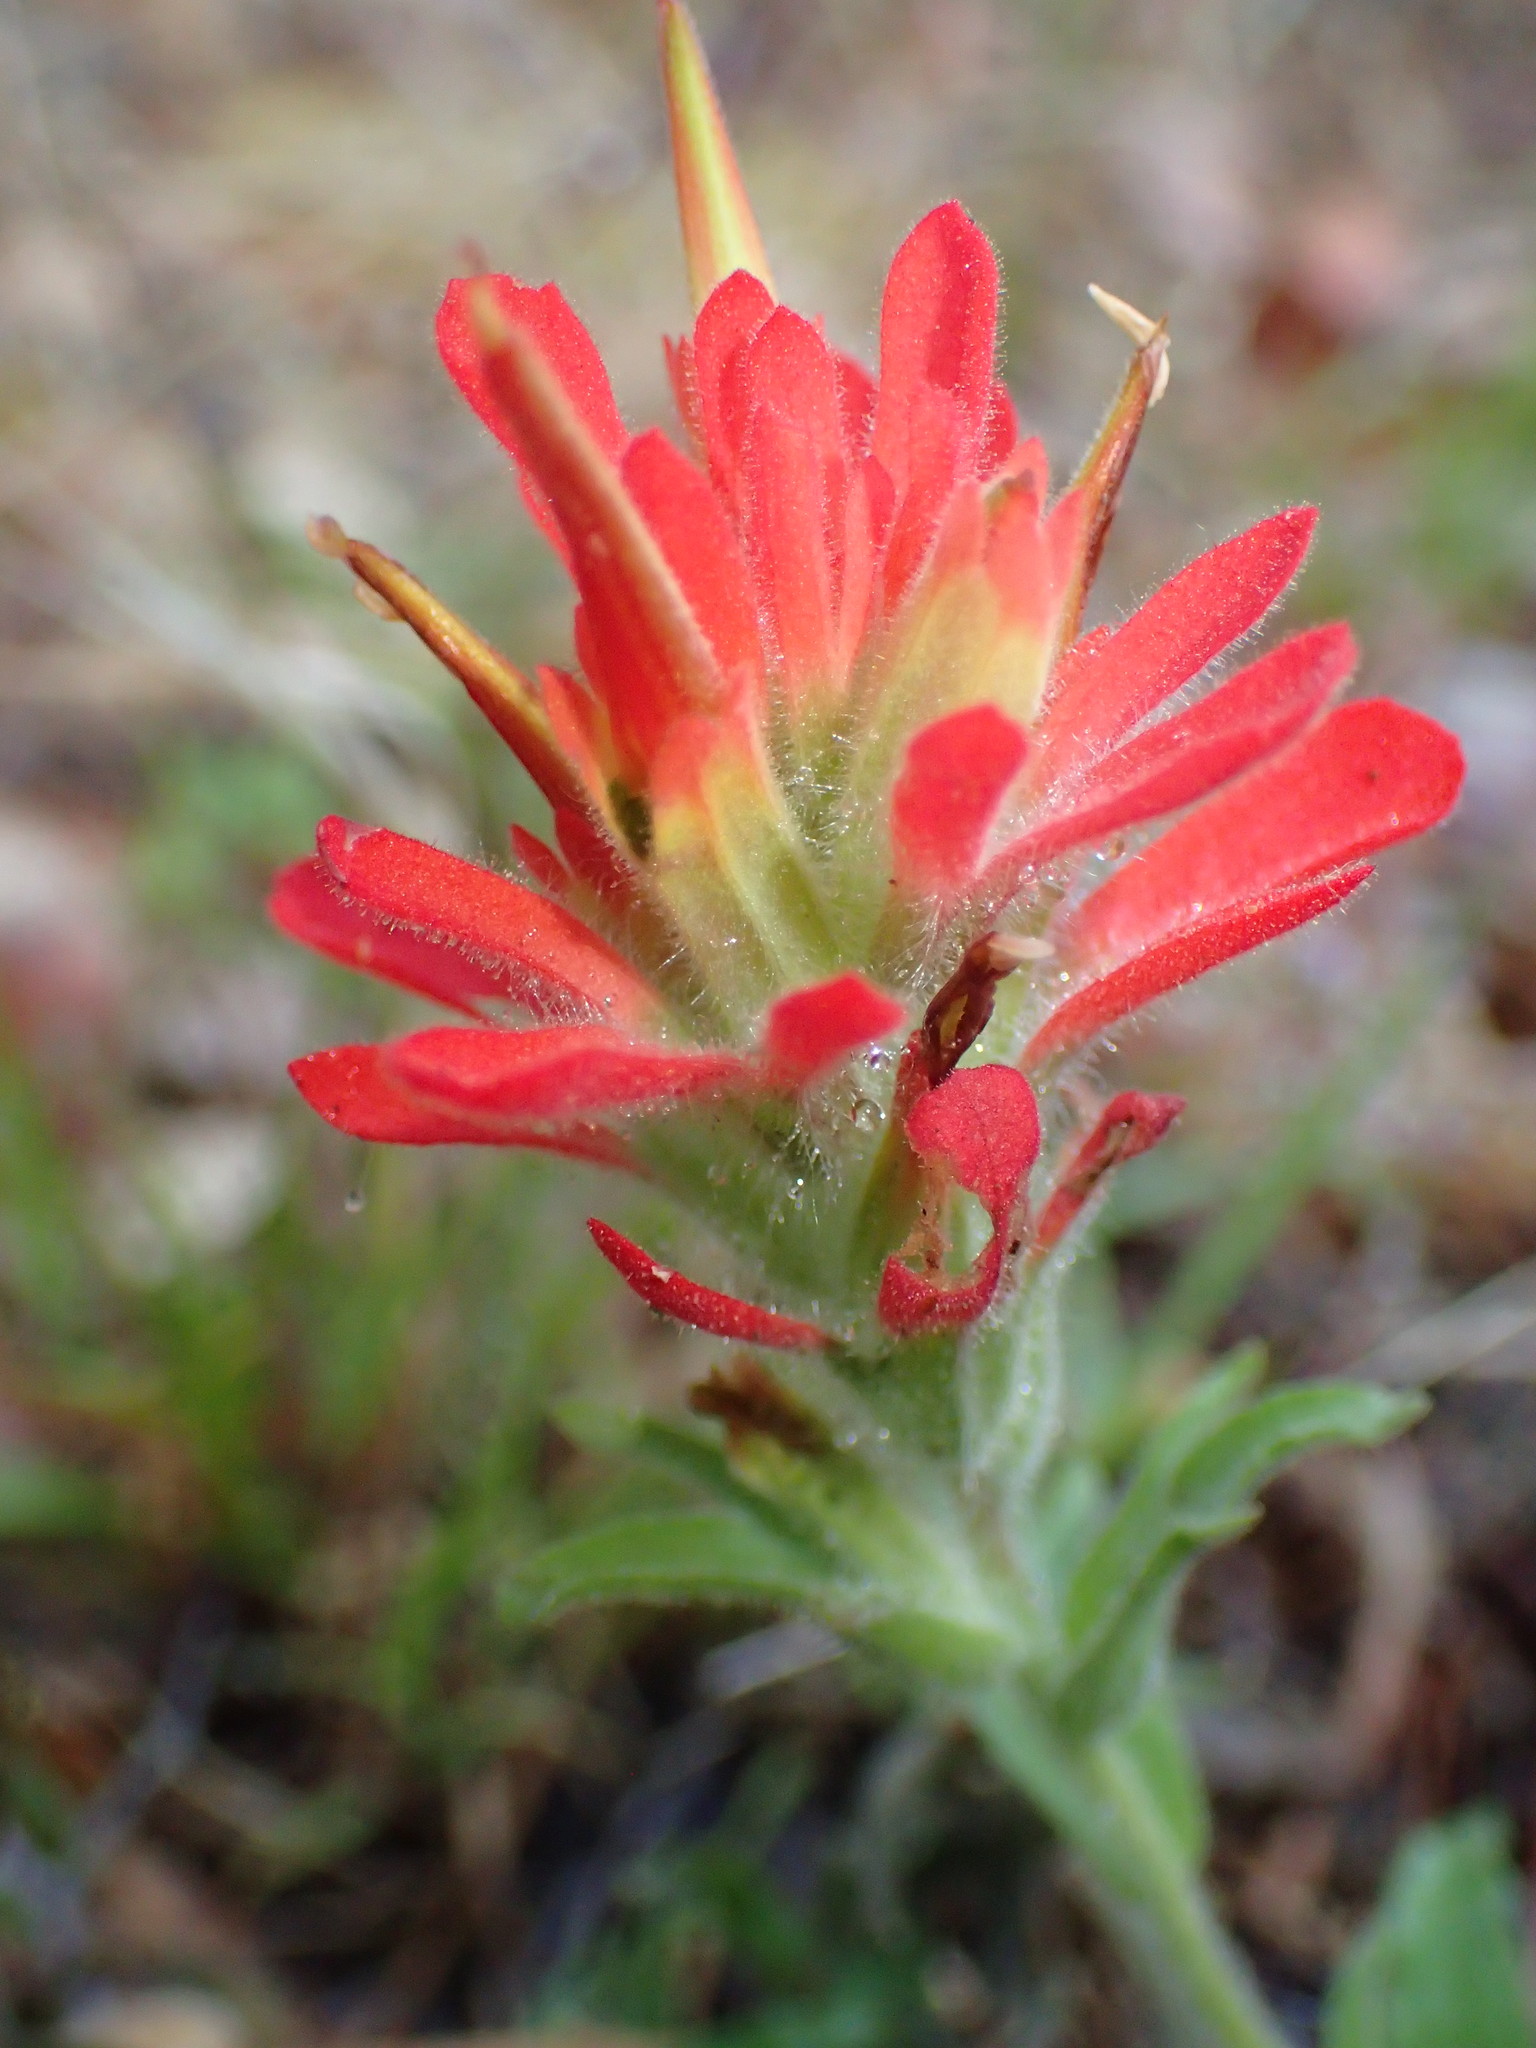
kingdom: Plantae
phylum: Tracheophyta
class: Magnoliopsida
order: Lamiales
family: Orobanchaceae
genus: Castilleja
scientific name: Castilleja affinis
